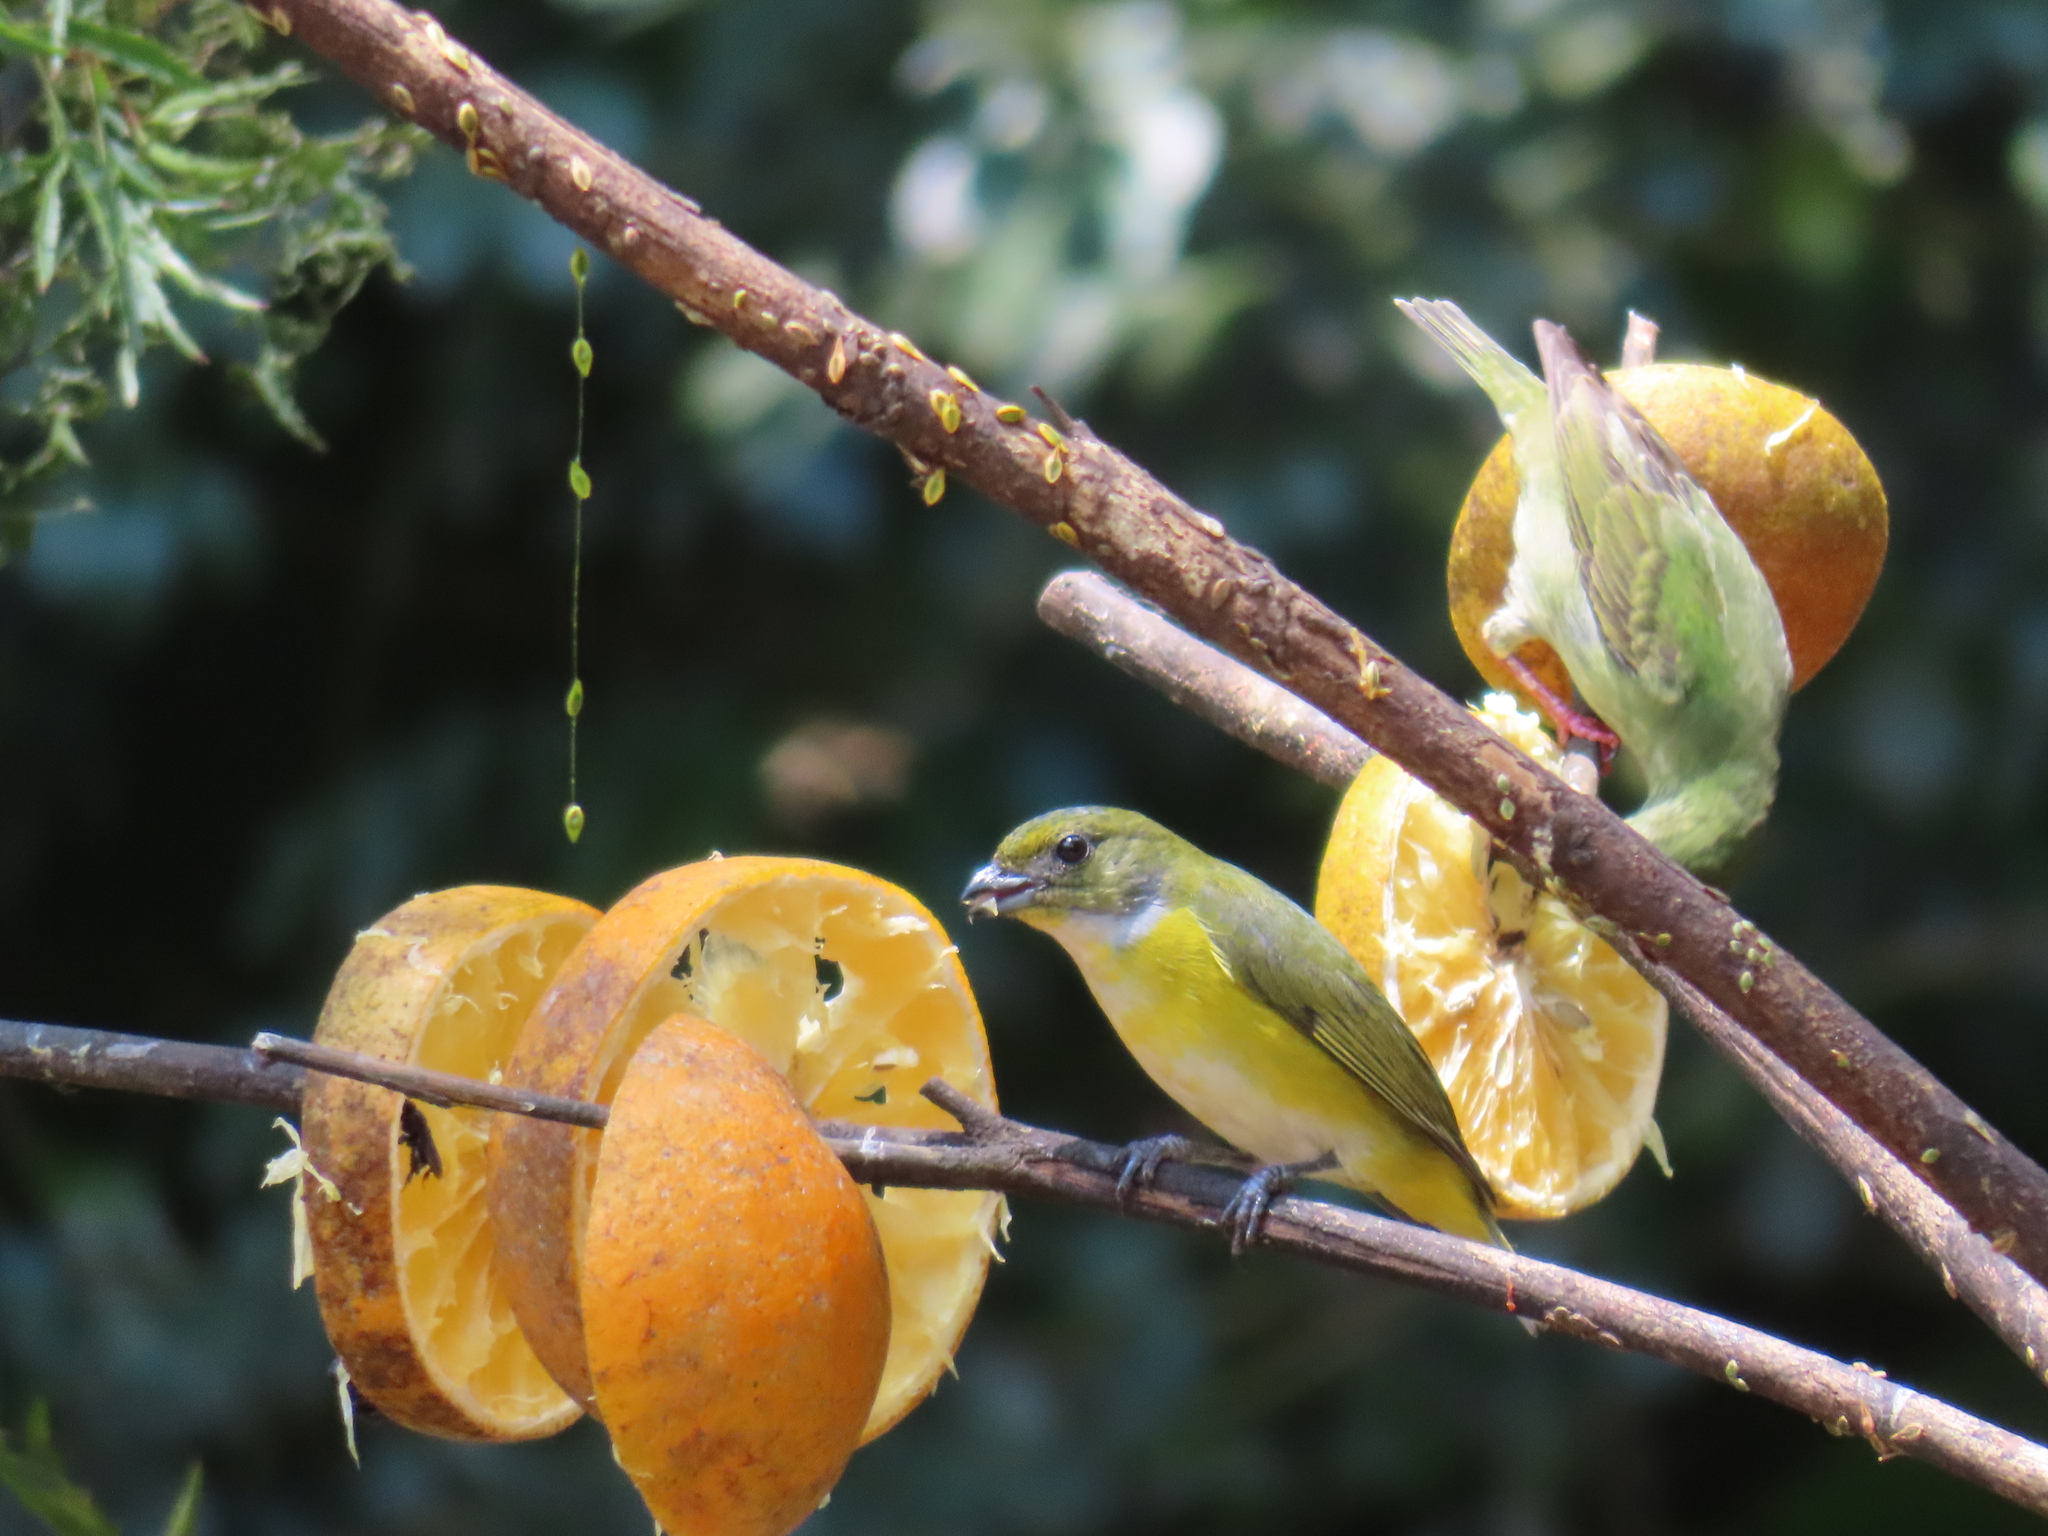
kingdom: Animalia
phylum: Chordata
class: Aves
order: Passeriformes
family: Fringillidae
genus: Euphonia
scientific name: Euphonia hirundinacea
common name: Yellow-throated euphonia
